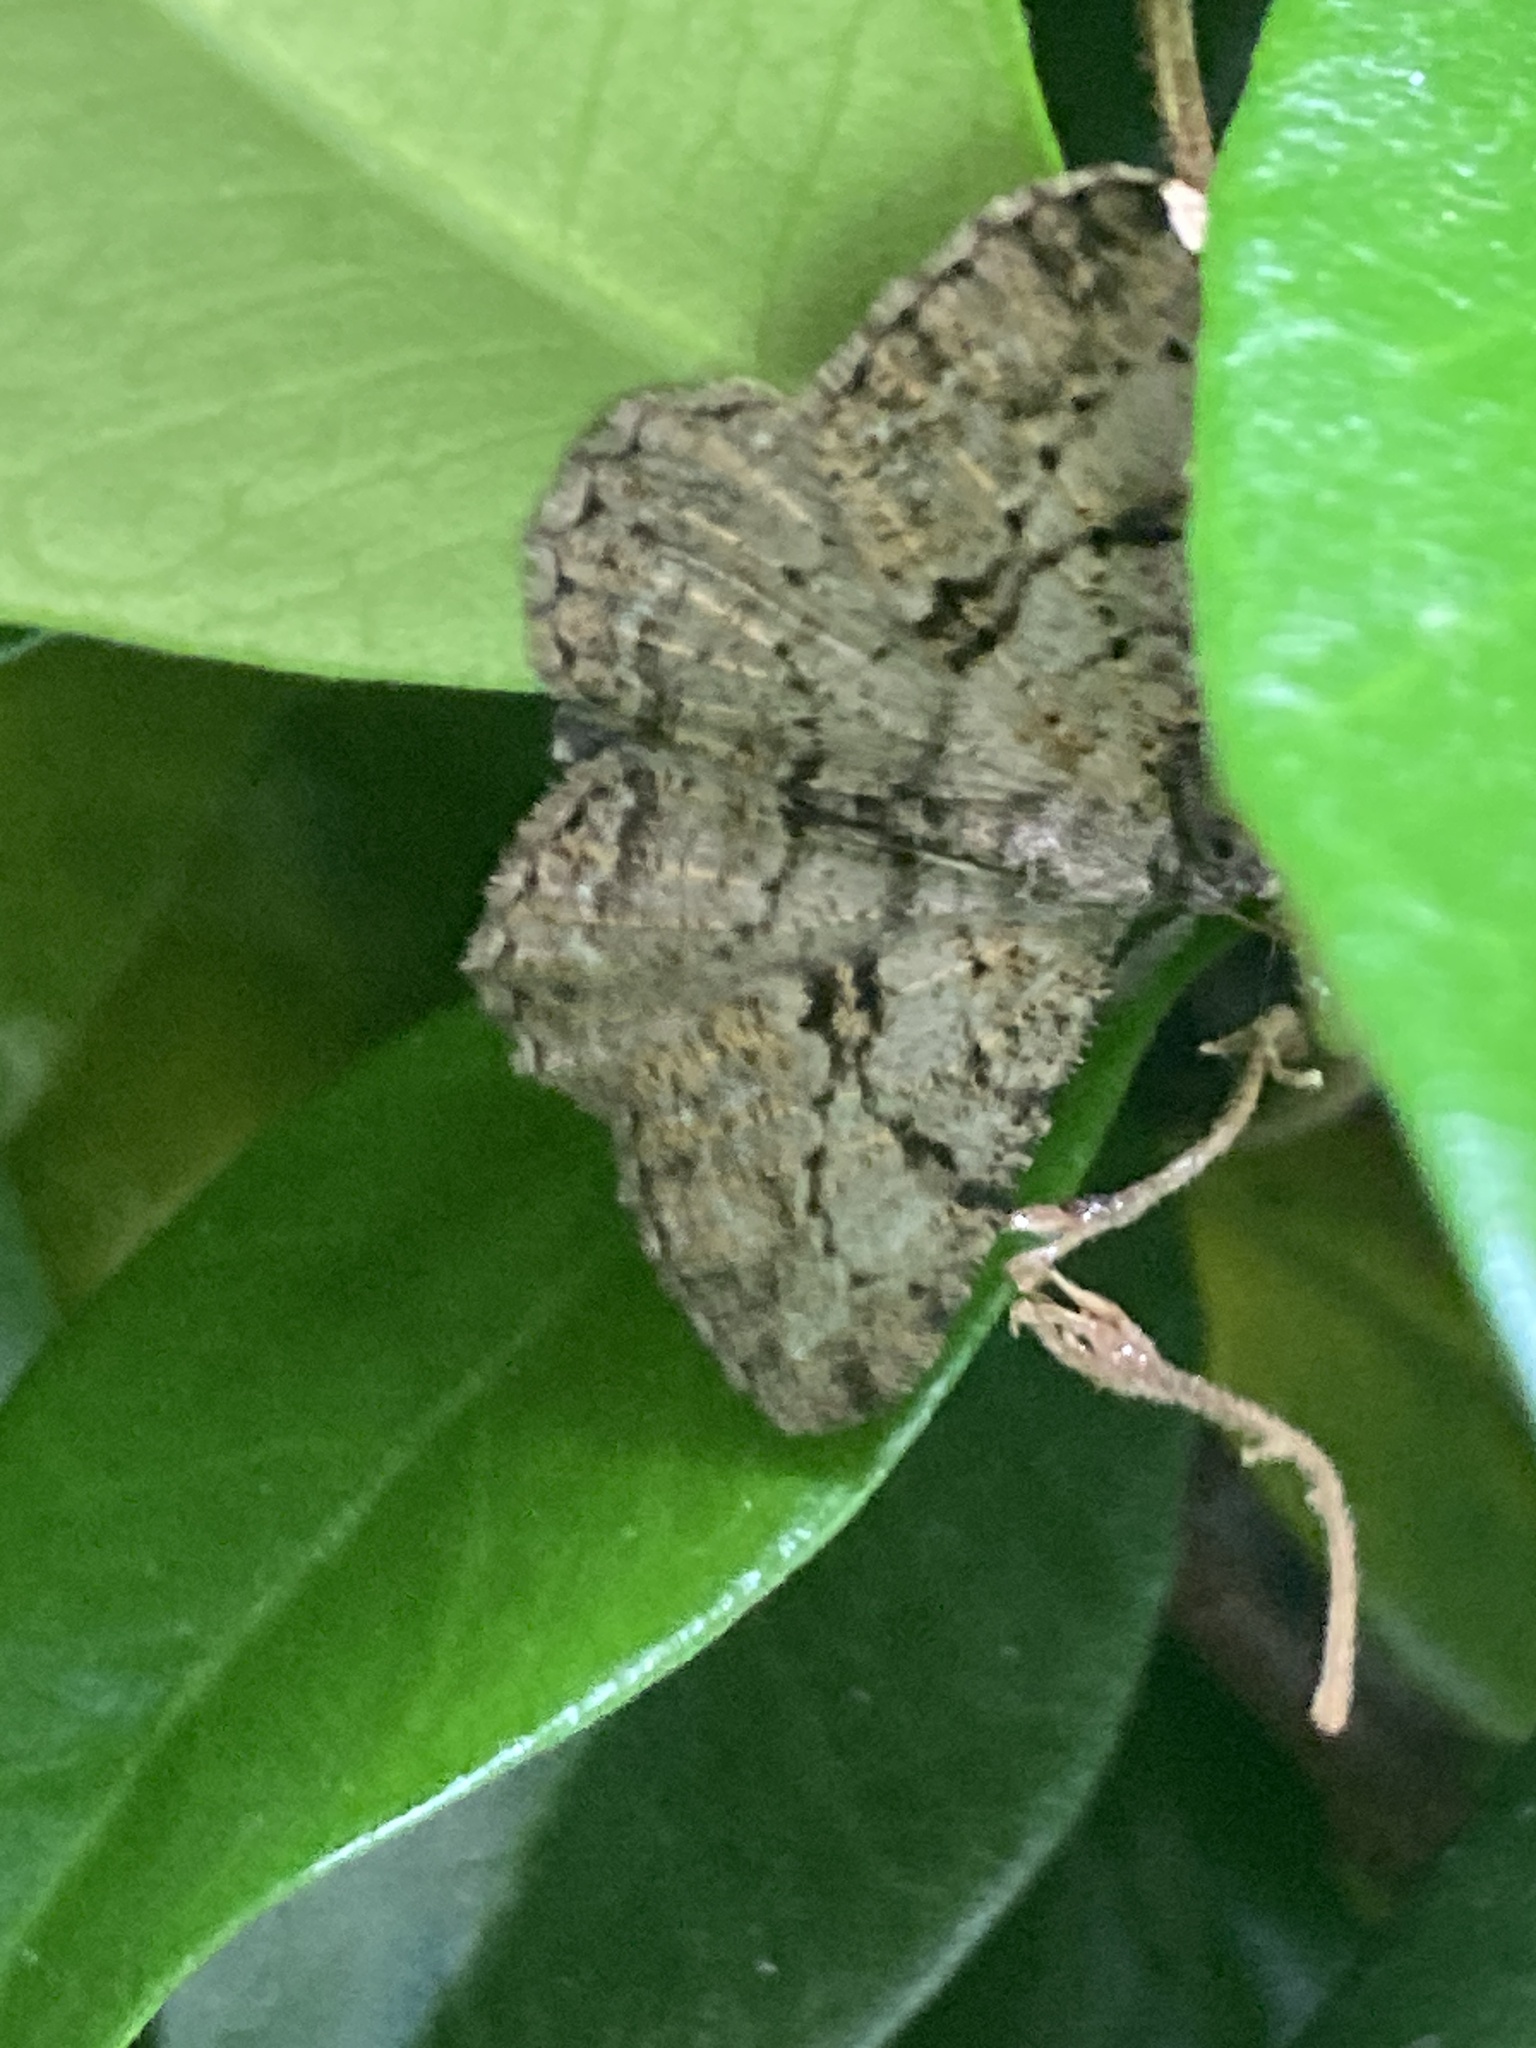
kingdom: Animalia
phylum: Arthropoda
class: Insecta
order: Lepidoptera
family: Geometridae
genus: Peribatodes
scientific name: Peribatodes rhomboidaria
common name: Willow beauty
